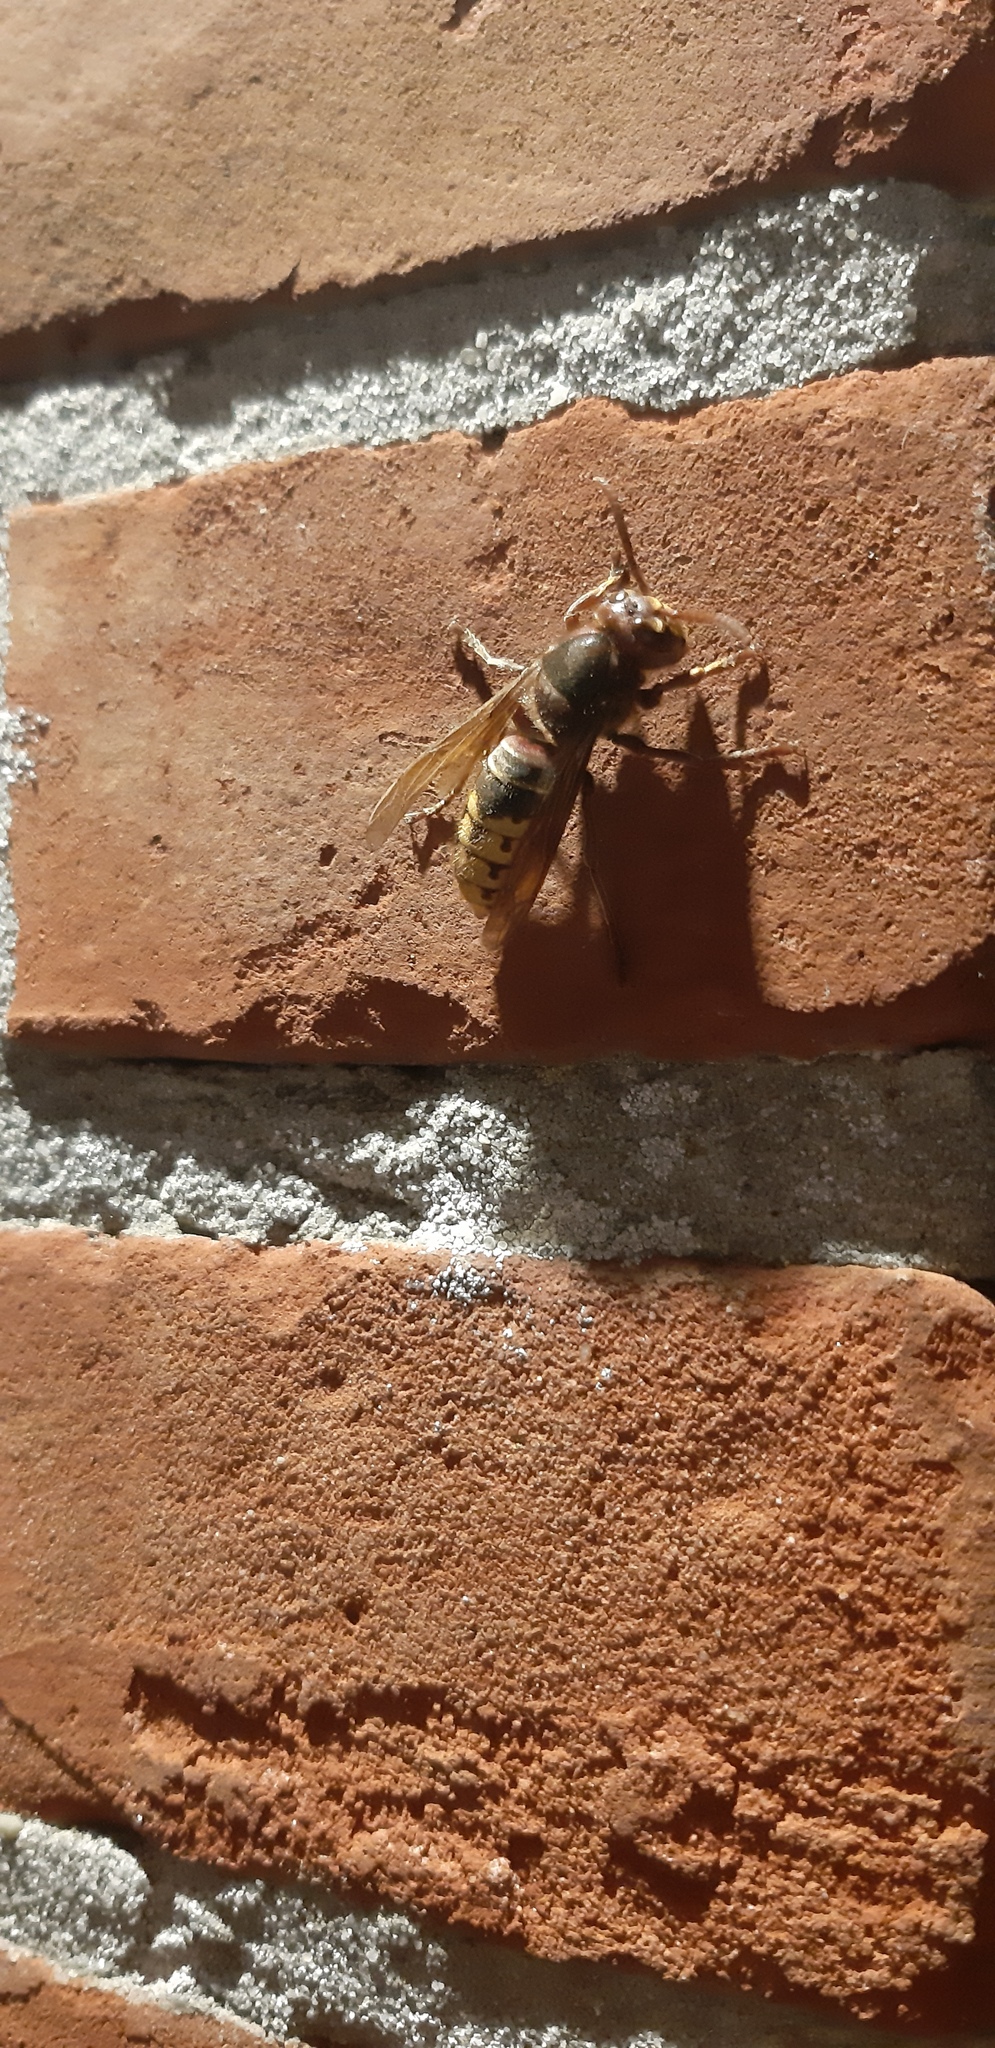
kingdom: Animalia
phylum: Arthropoda
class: Insecta
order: Hymenoptera
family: Vespidae
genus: Vespa
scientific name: Vespa crabro
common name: Hornet
